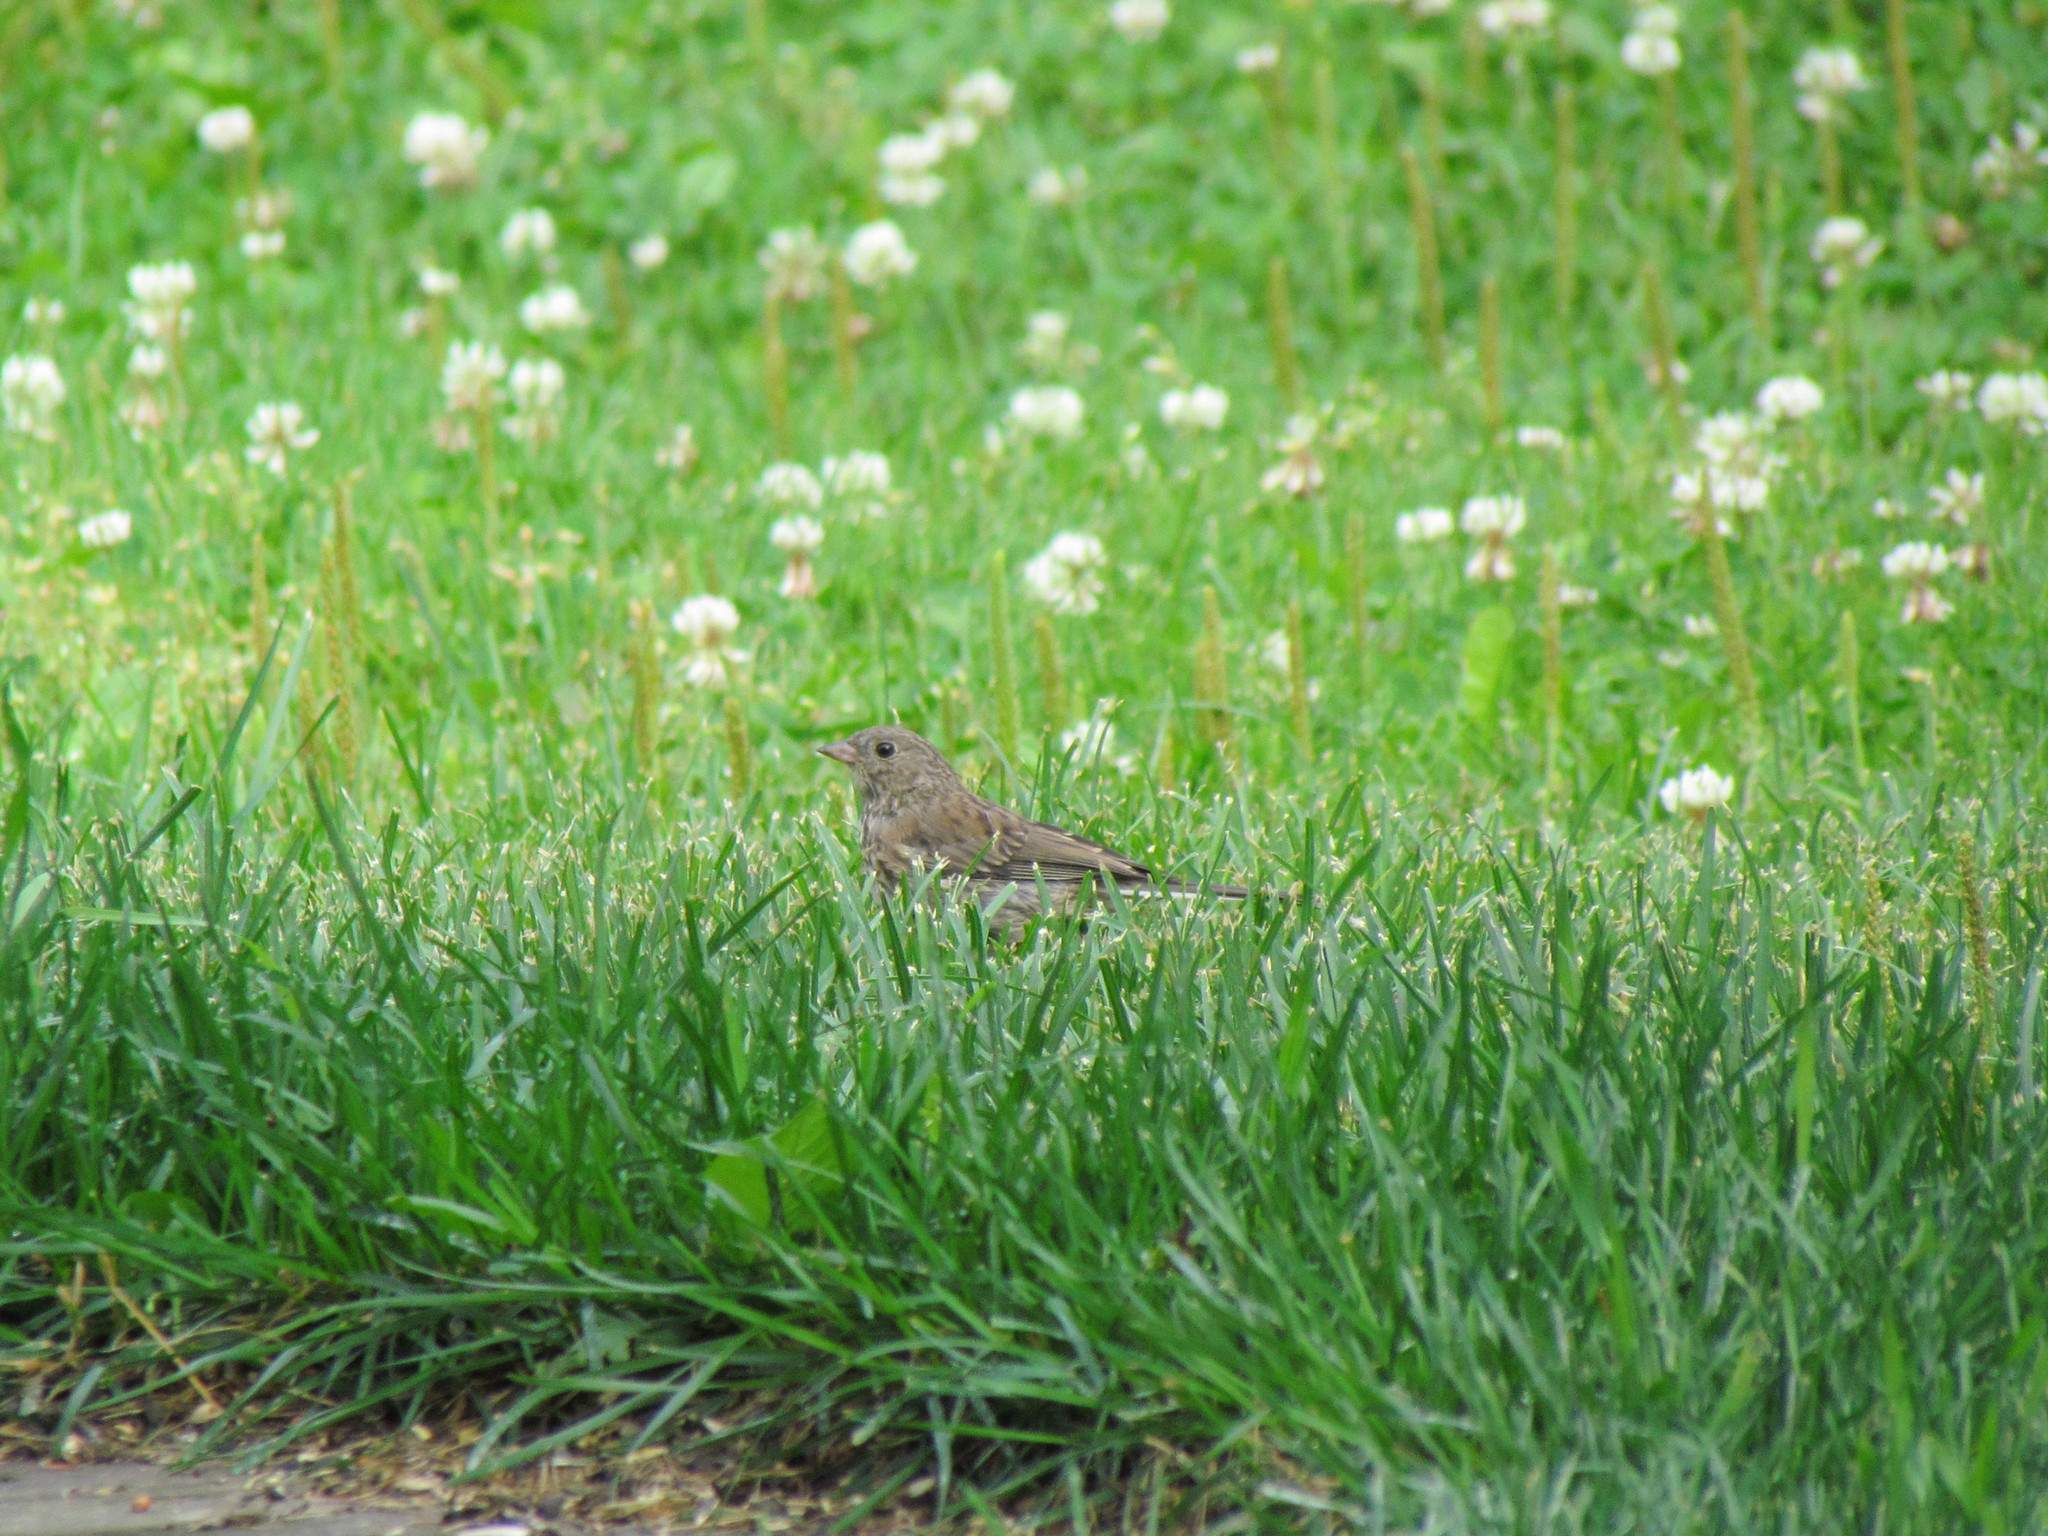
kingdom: Animalia
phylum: Chordata
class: Aves
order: Passeriformes
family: Passerellidae
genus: Junco
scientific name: Junco hyemalis
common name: Dark-eyed junco
